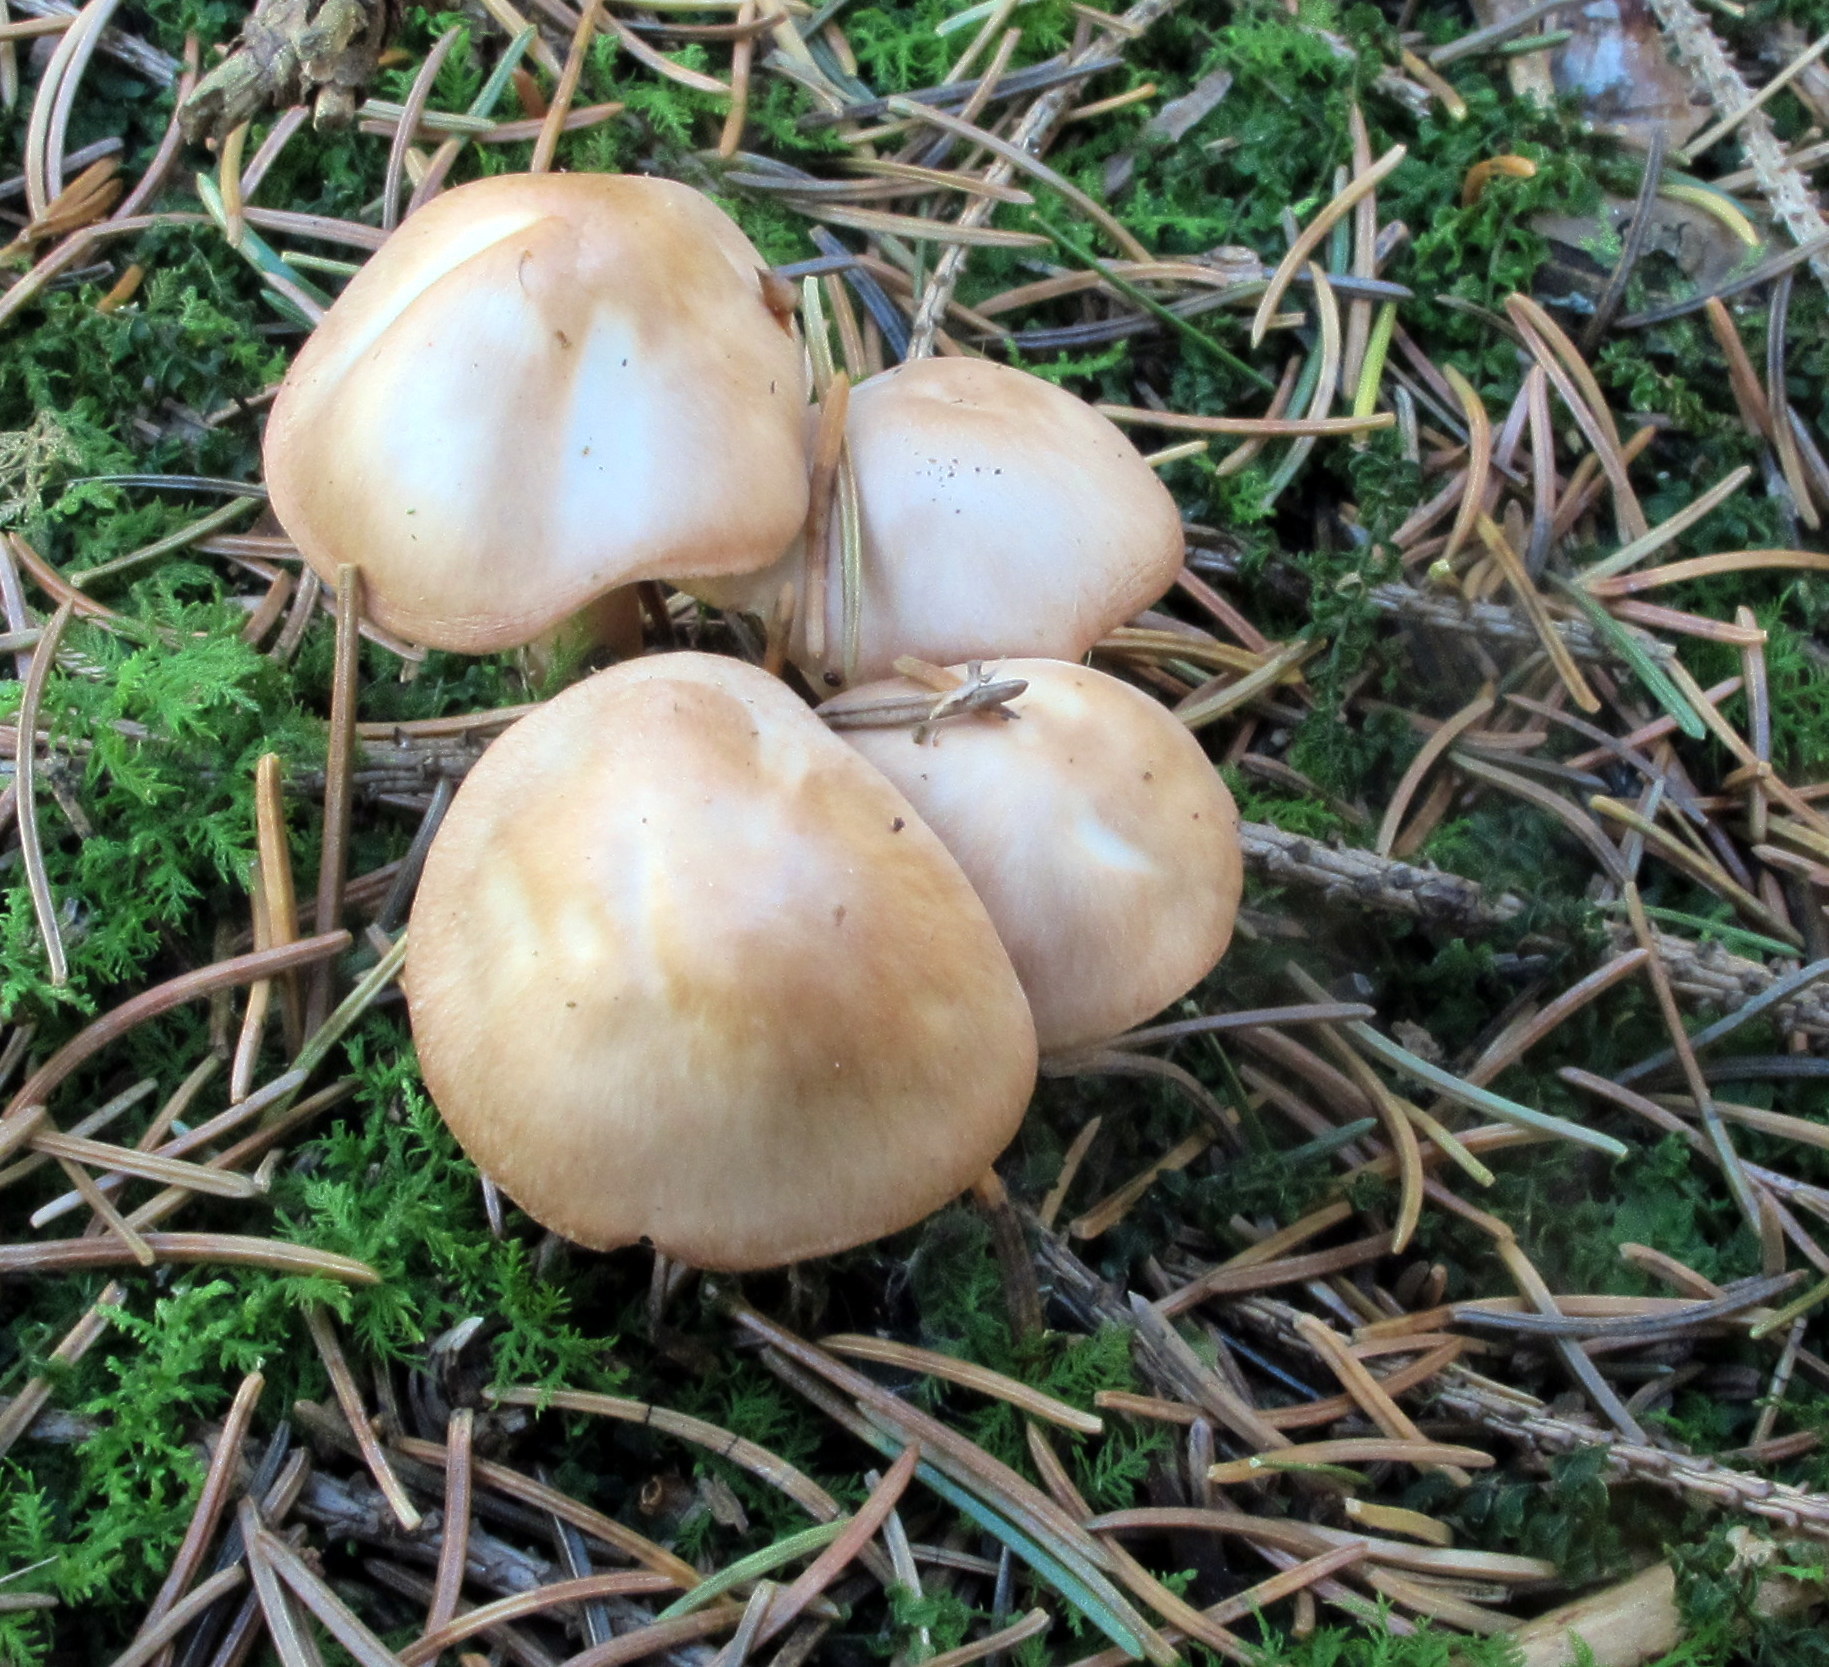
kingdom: Fungi
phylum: Basidiomycota
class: Agaricomycetes
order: Agaricales
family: Omphalotaceae
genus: Gymnopus
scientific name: Gymnopus dryophilus
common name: Penny top
